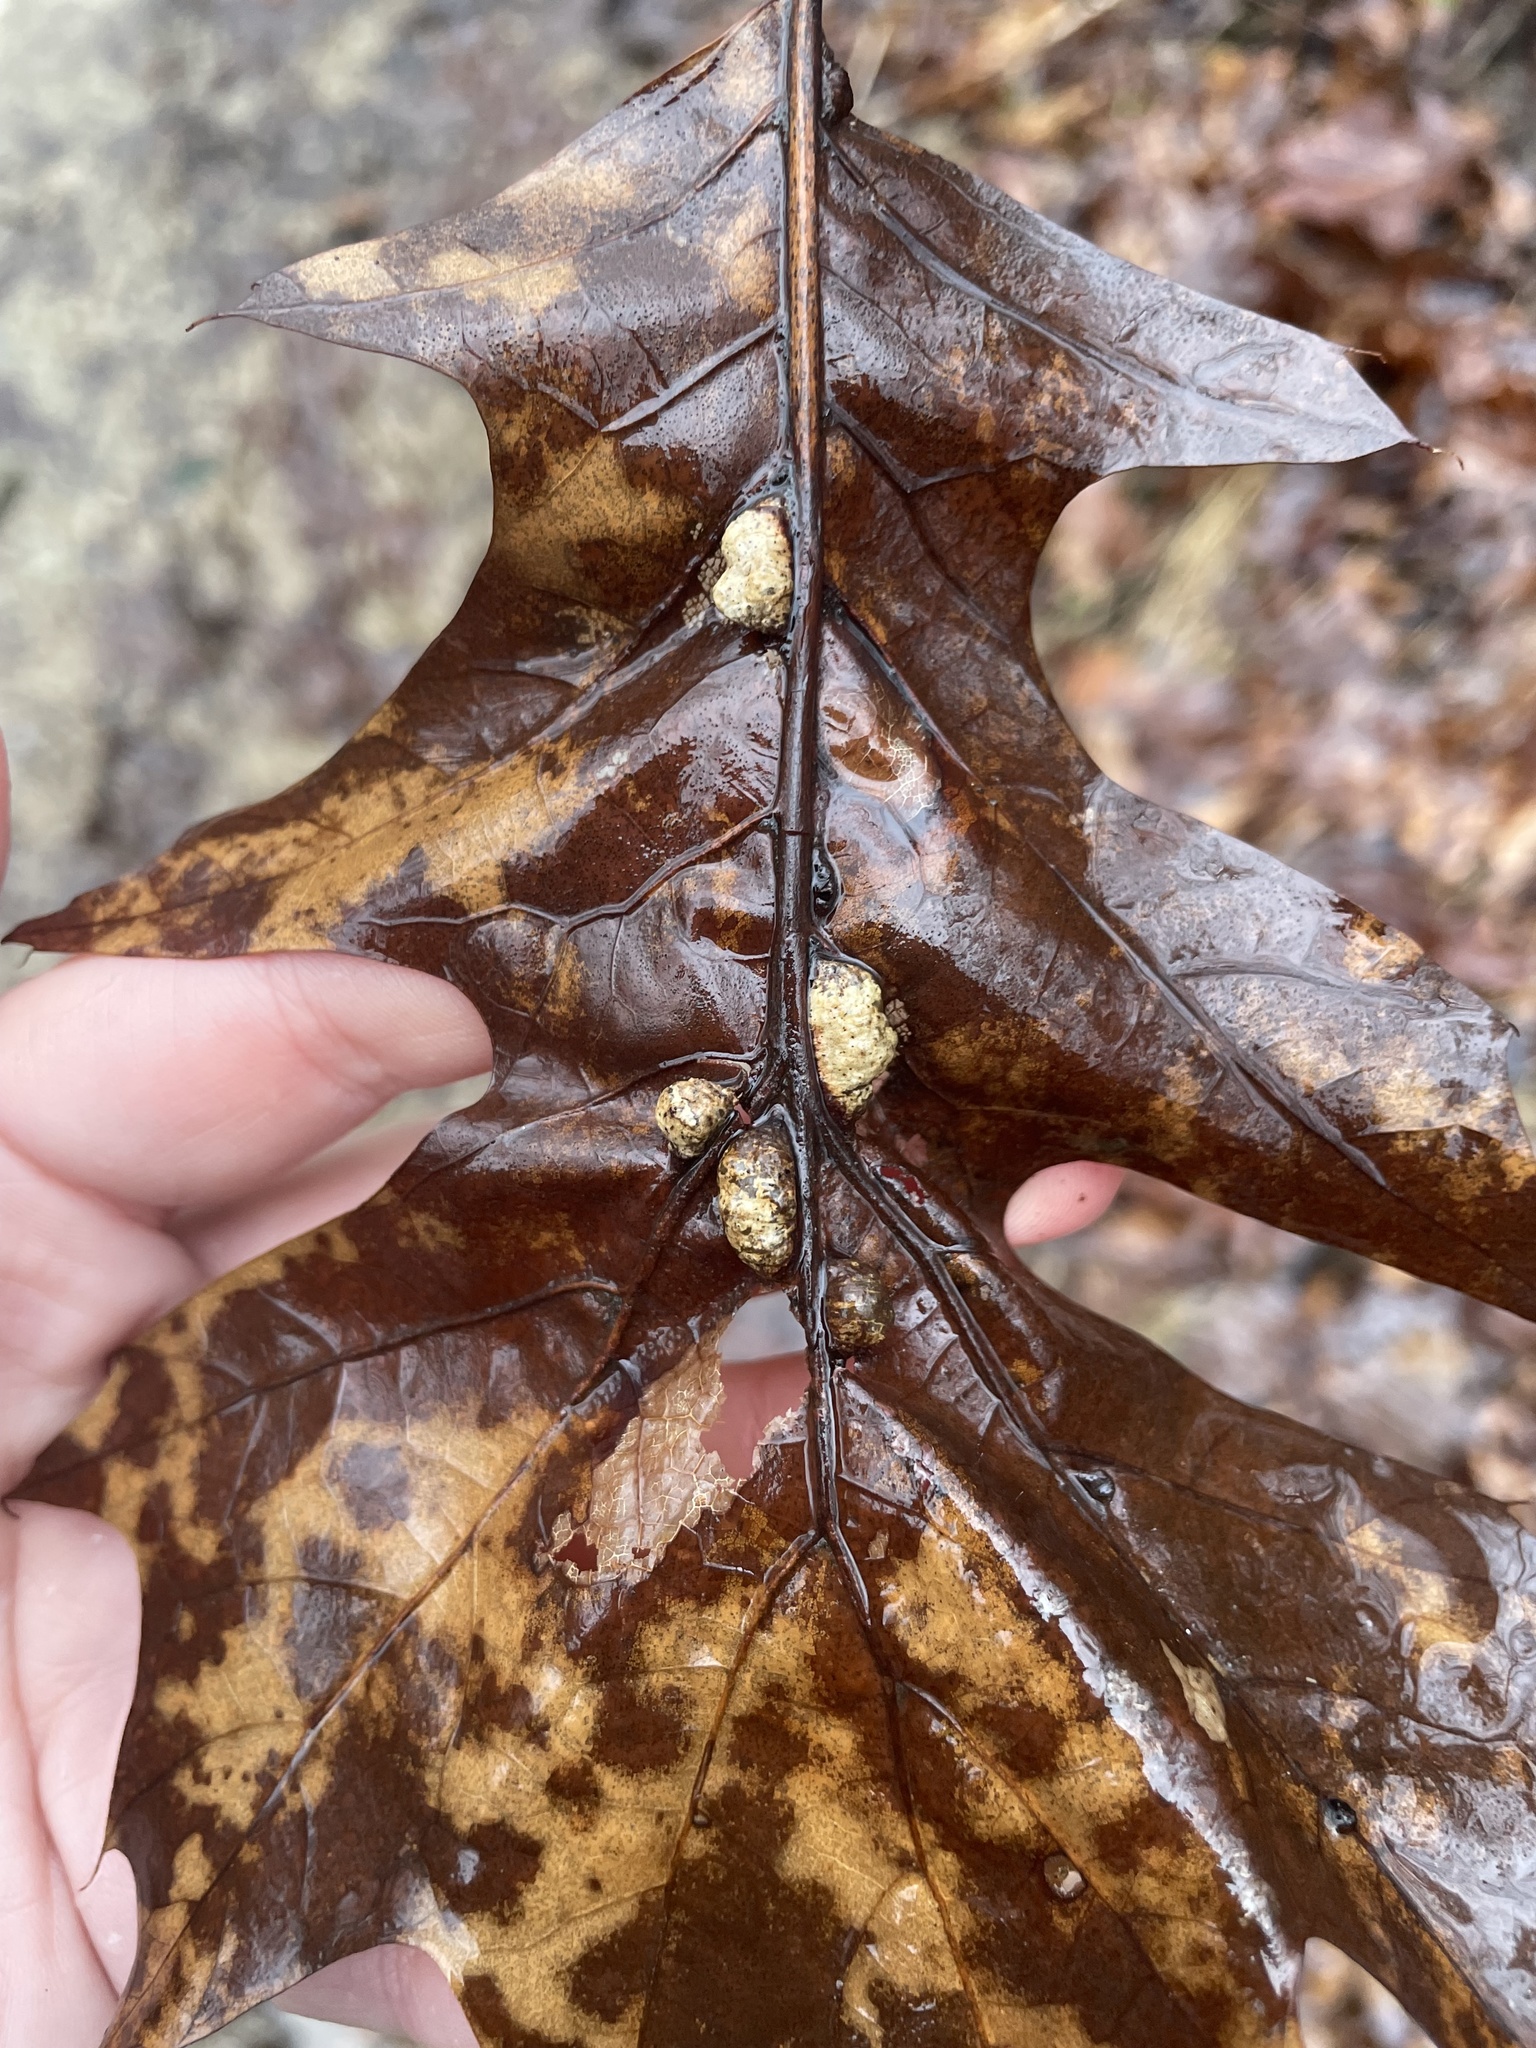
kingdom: Animalia
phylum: Arthropoda
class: Insecta
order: Diptera
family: Cecidomyiidae
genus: Macrodiplosis
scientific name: Macrodiplosis majalis
